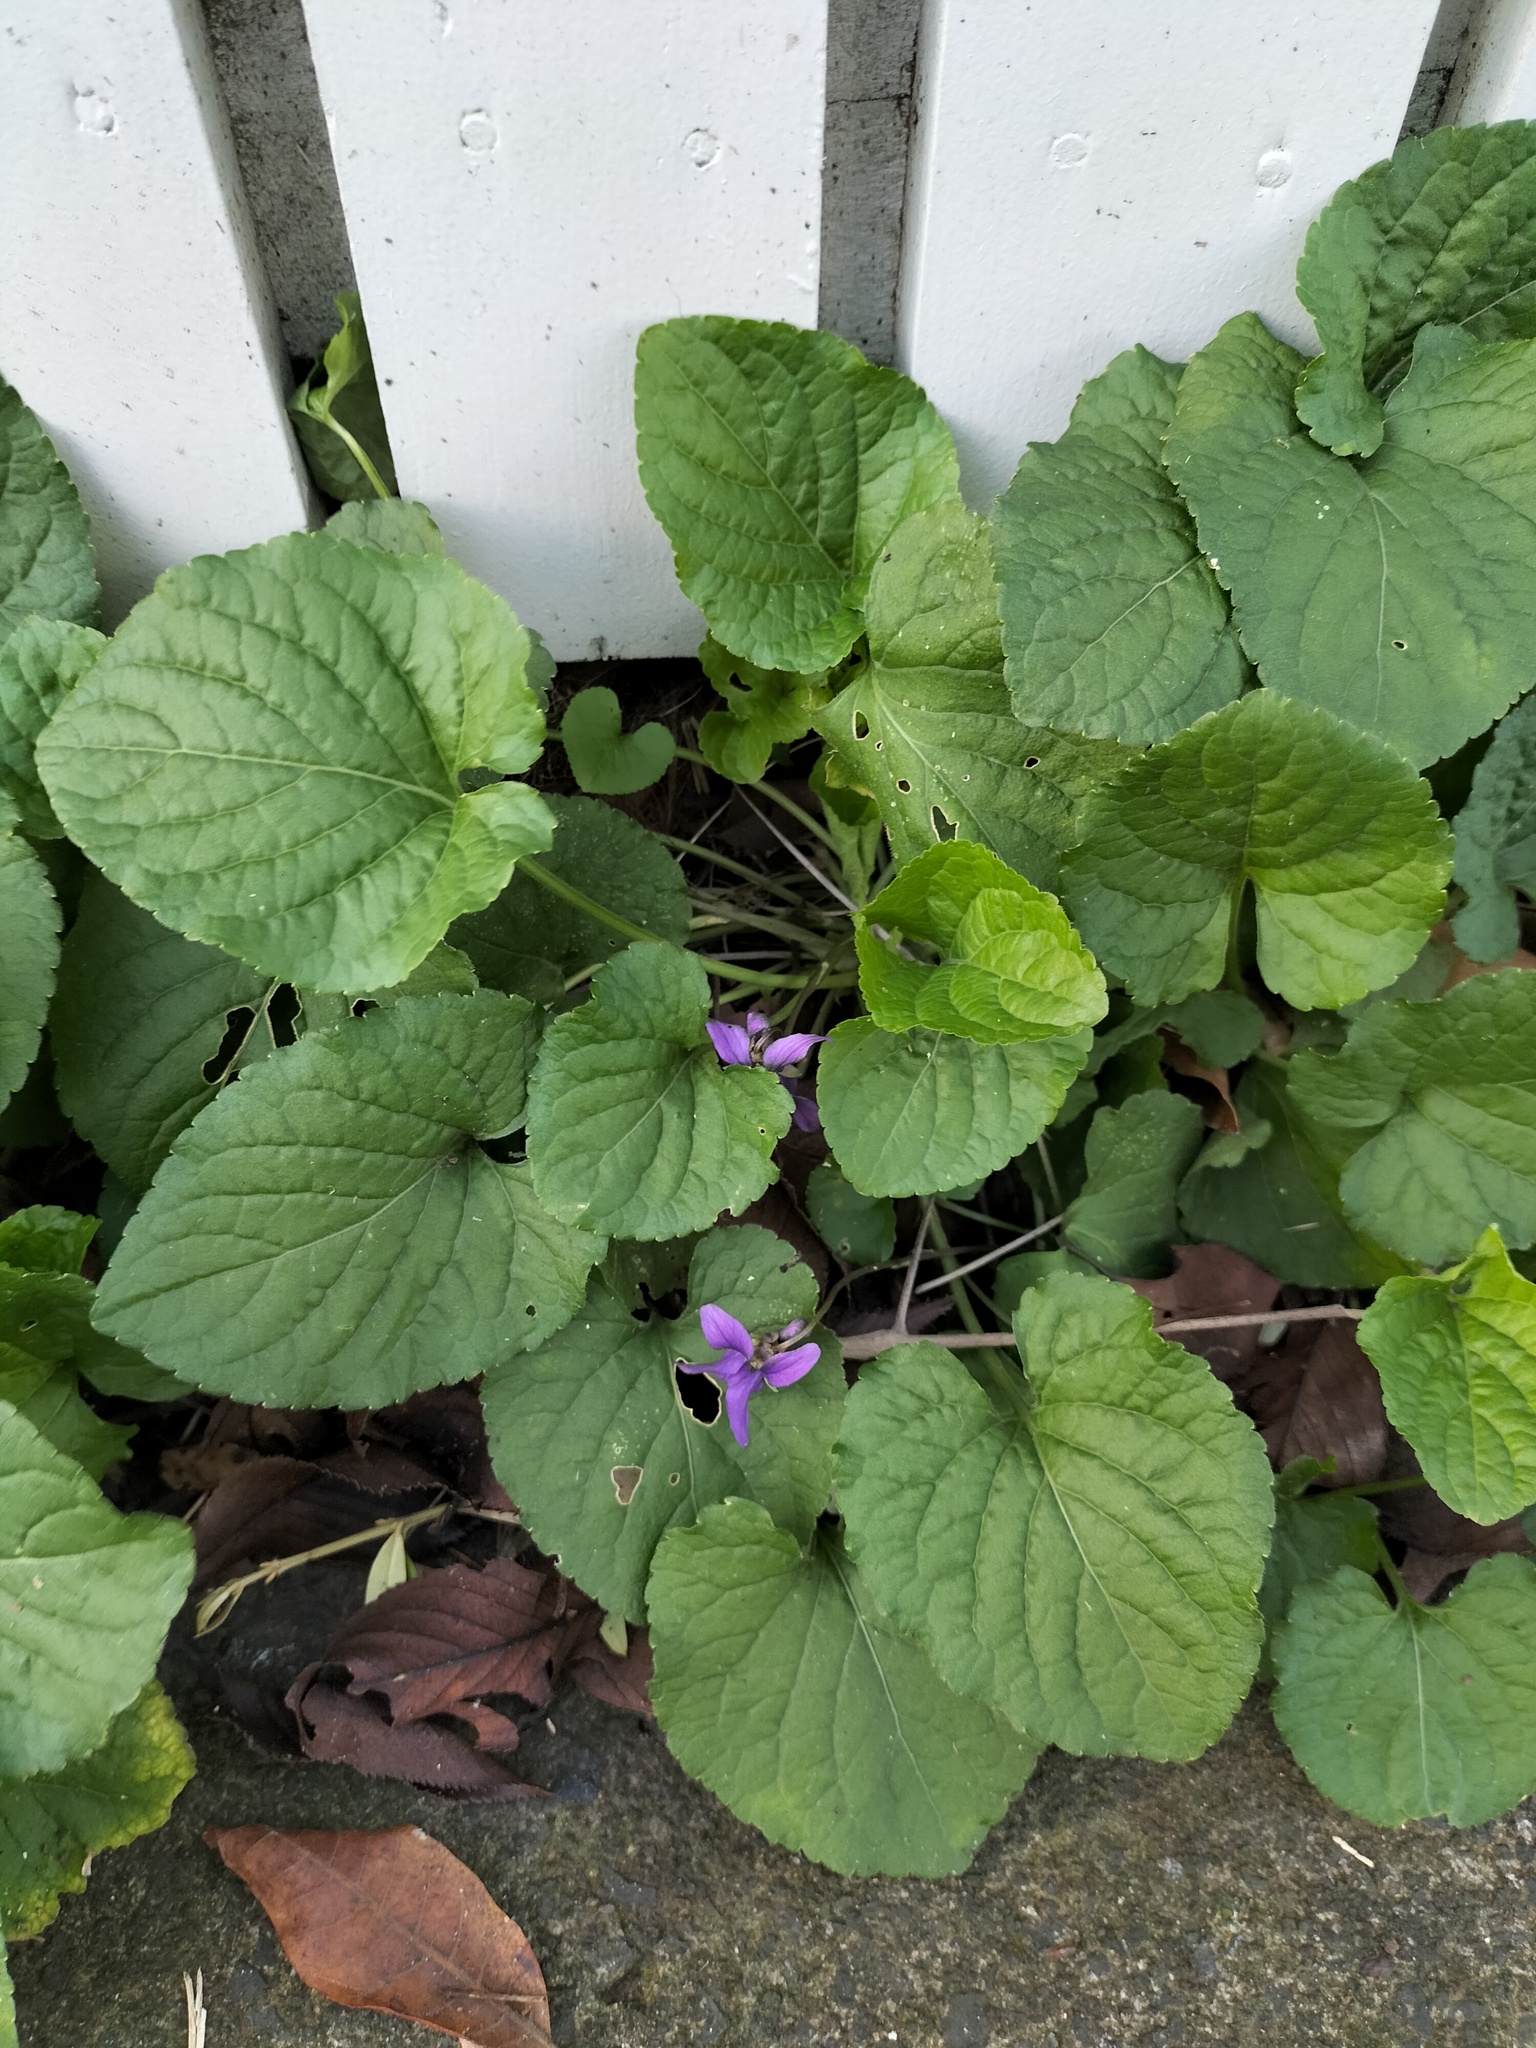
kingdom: Plantae
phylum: Tracheophyta
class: Magnoliopsida
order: Malpighiales
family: Violaceae
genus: Viola
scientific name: Viola odorata
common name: Sweet violet
